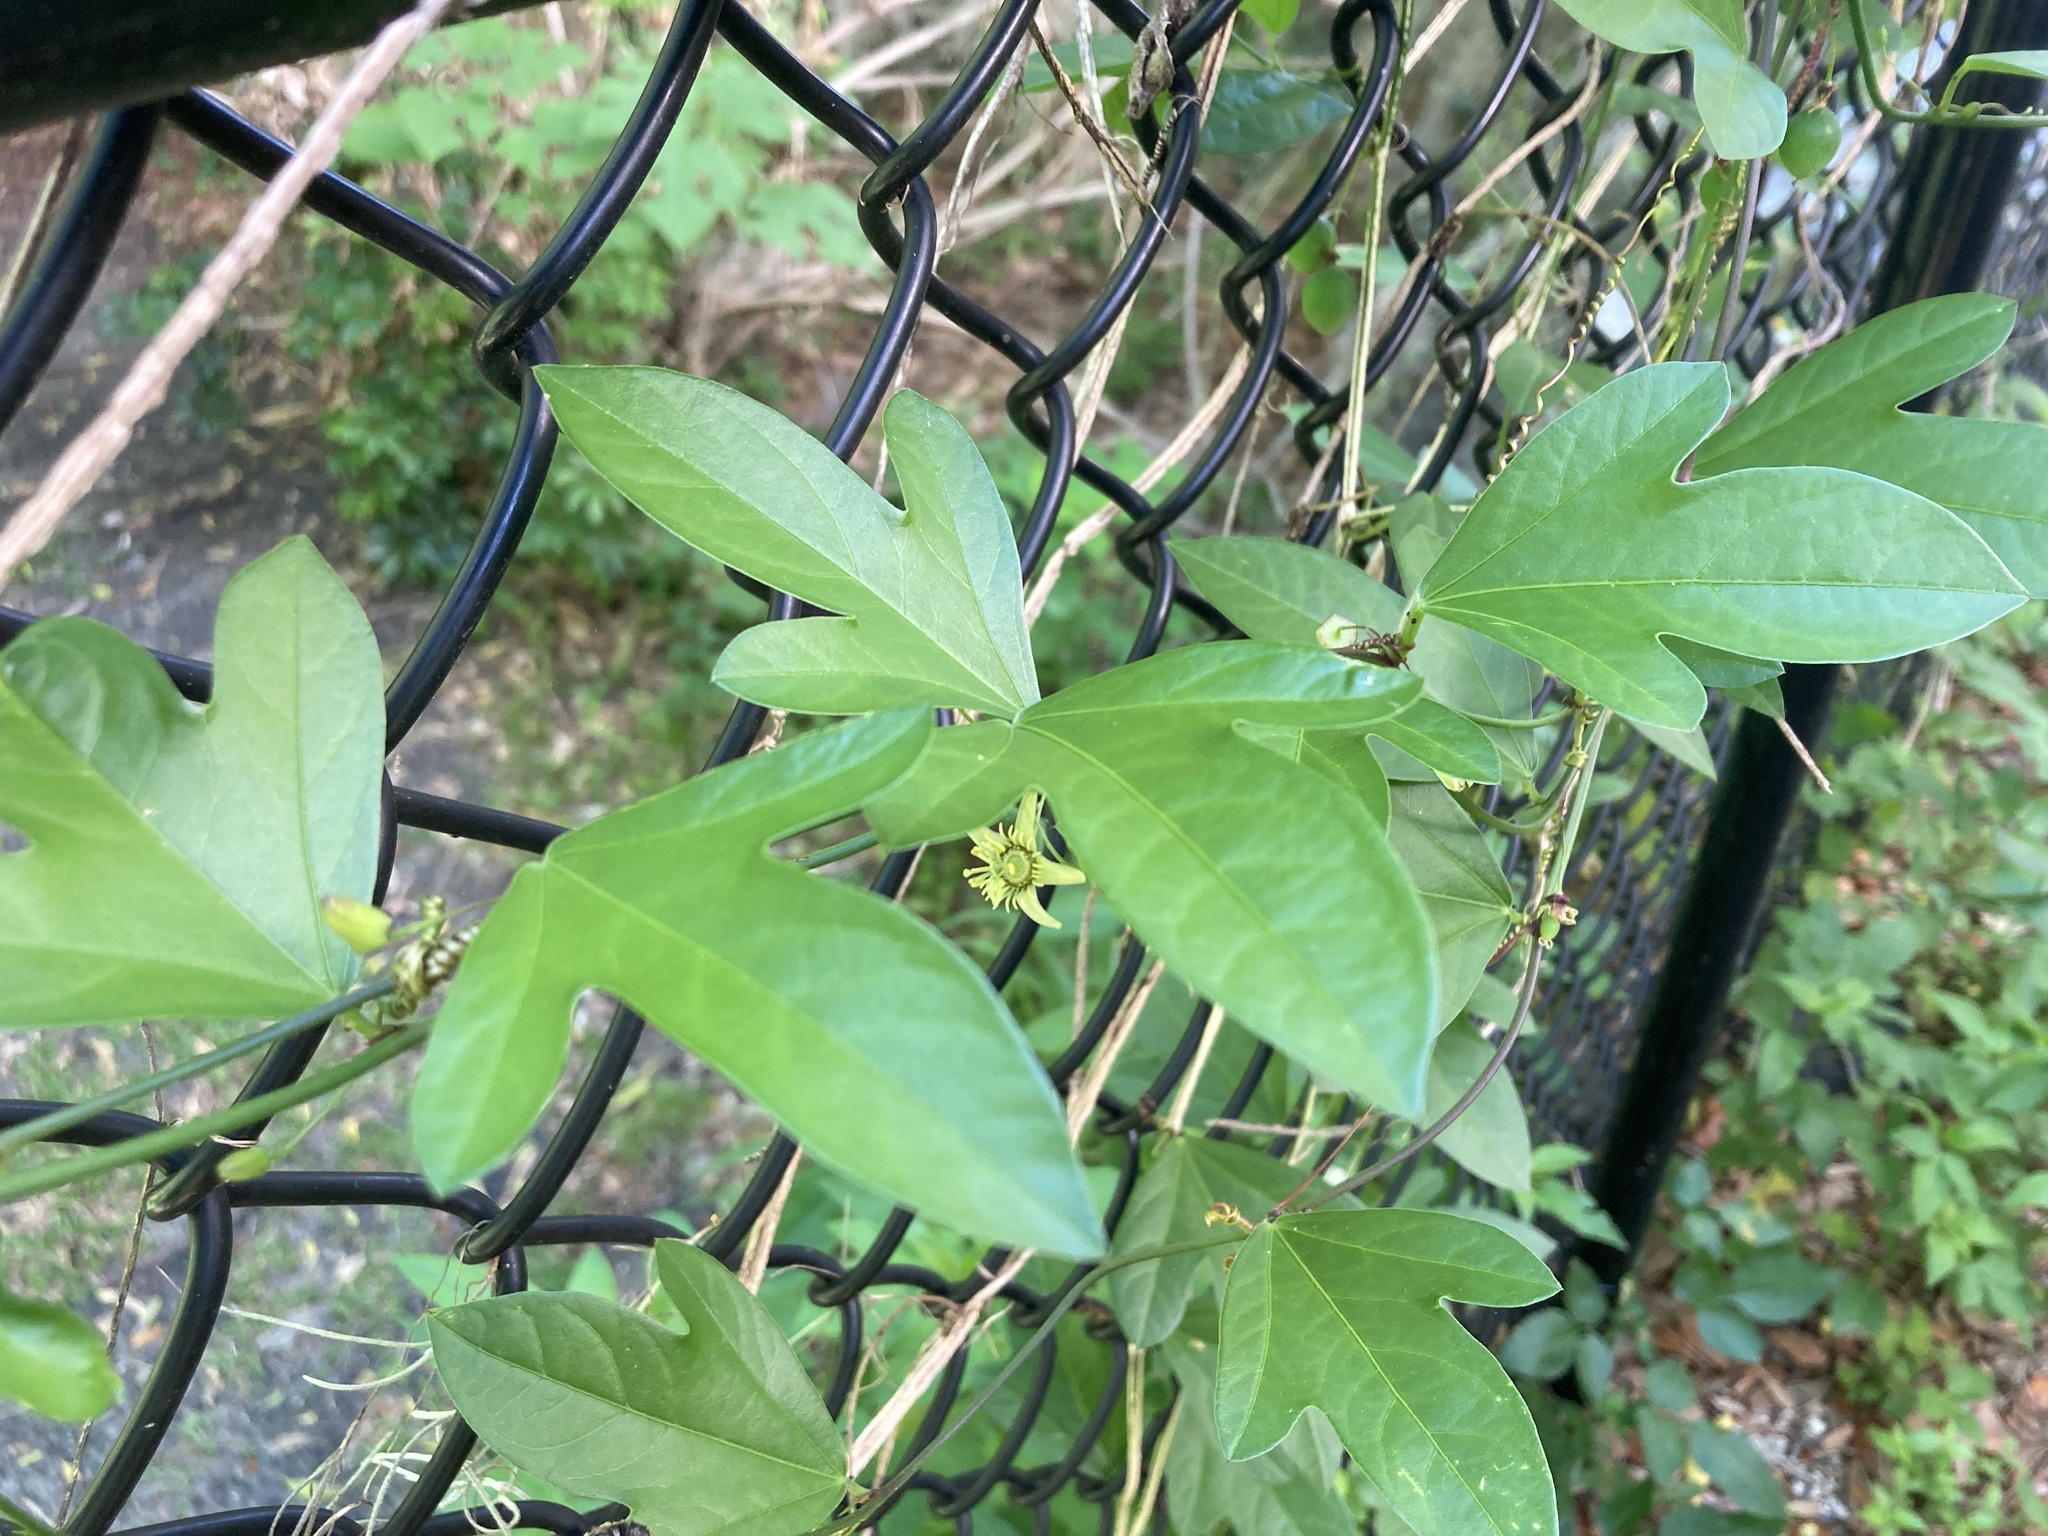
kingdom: Plantae
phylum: Tracheophyta
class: Magnoliopsida
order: Malpighiales
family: Passifloraceae
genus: Passiflora
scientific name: Passiflora pallida
